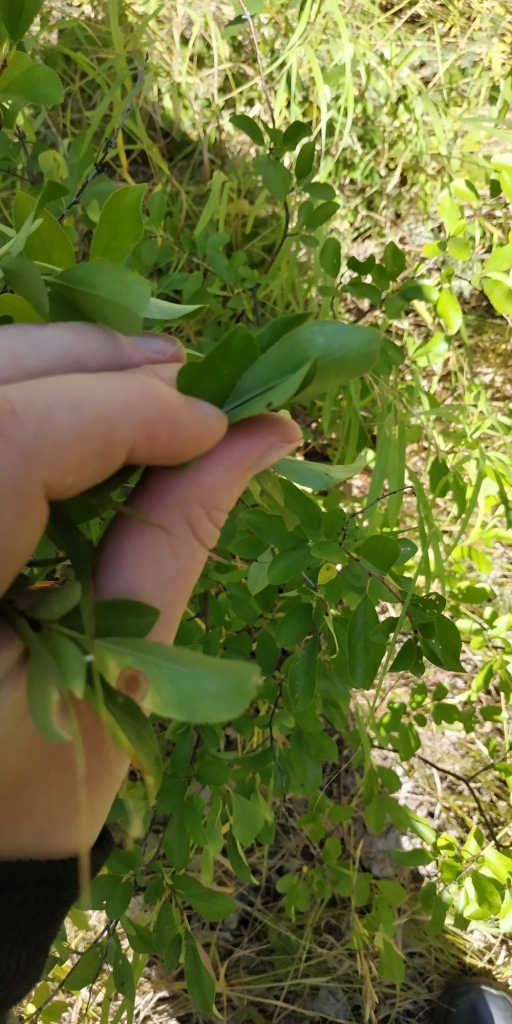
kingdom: Plantae
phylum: Tracheophyta
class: Magnoliopsida
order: Rosales
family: Rosaceae
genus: Prunus
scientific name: Prunus fruticosa
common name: European dwarf cherry
